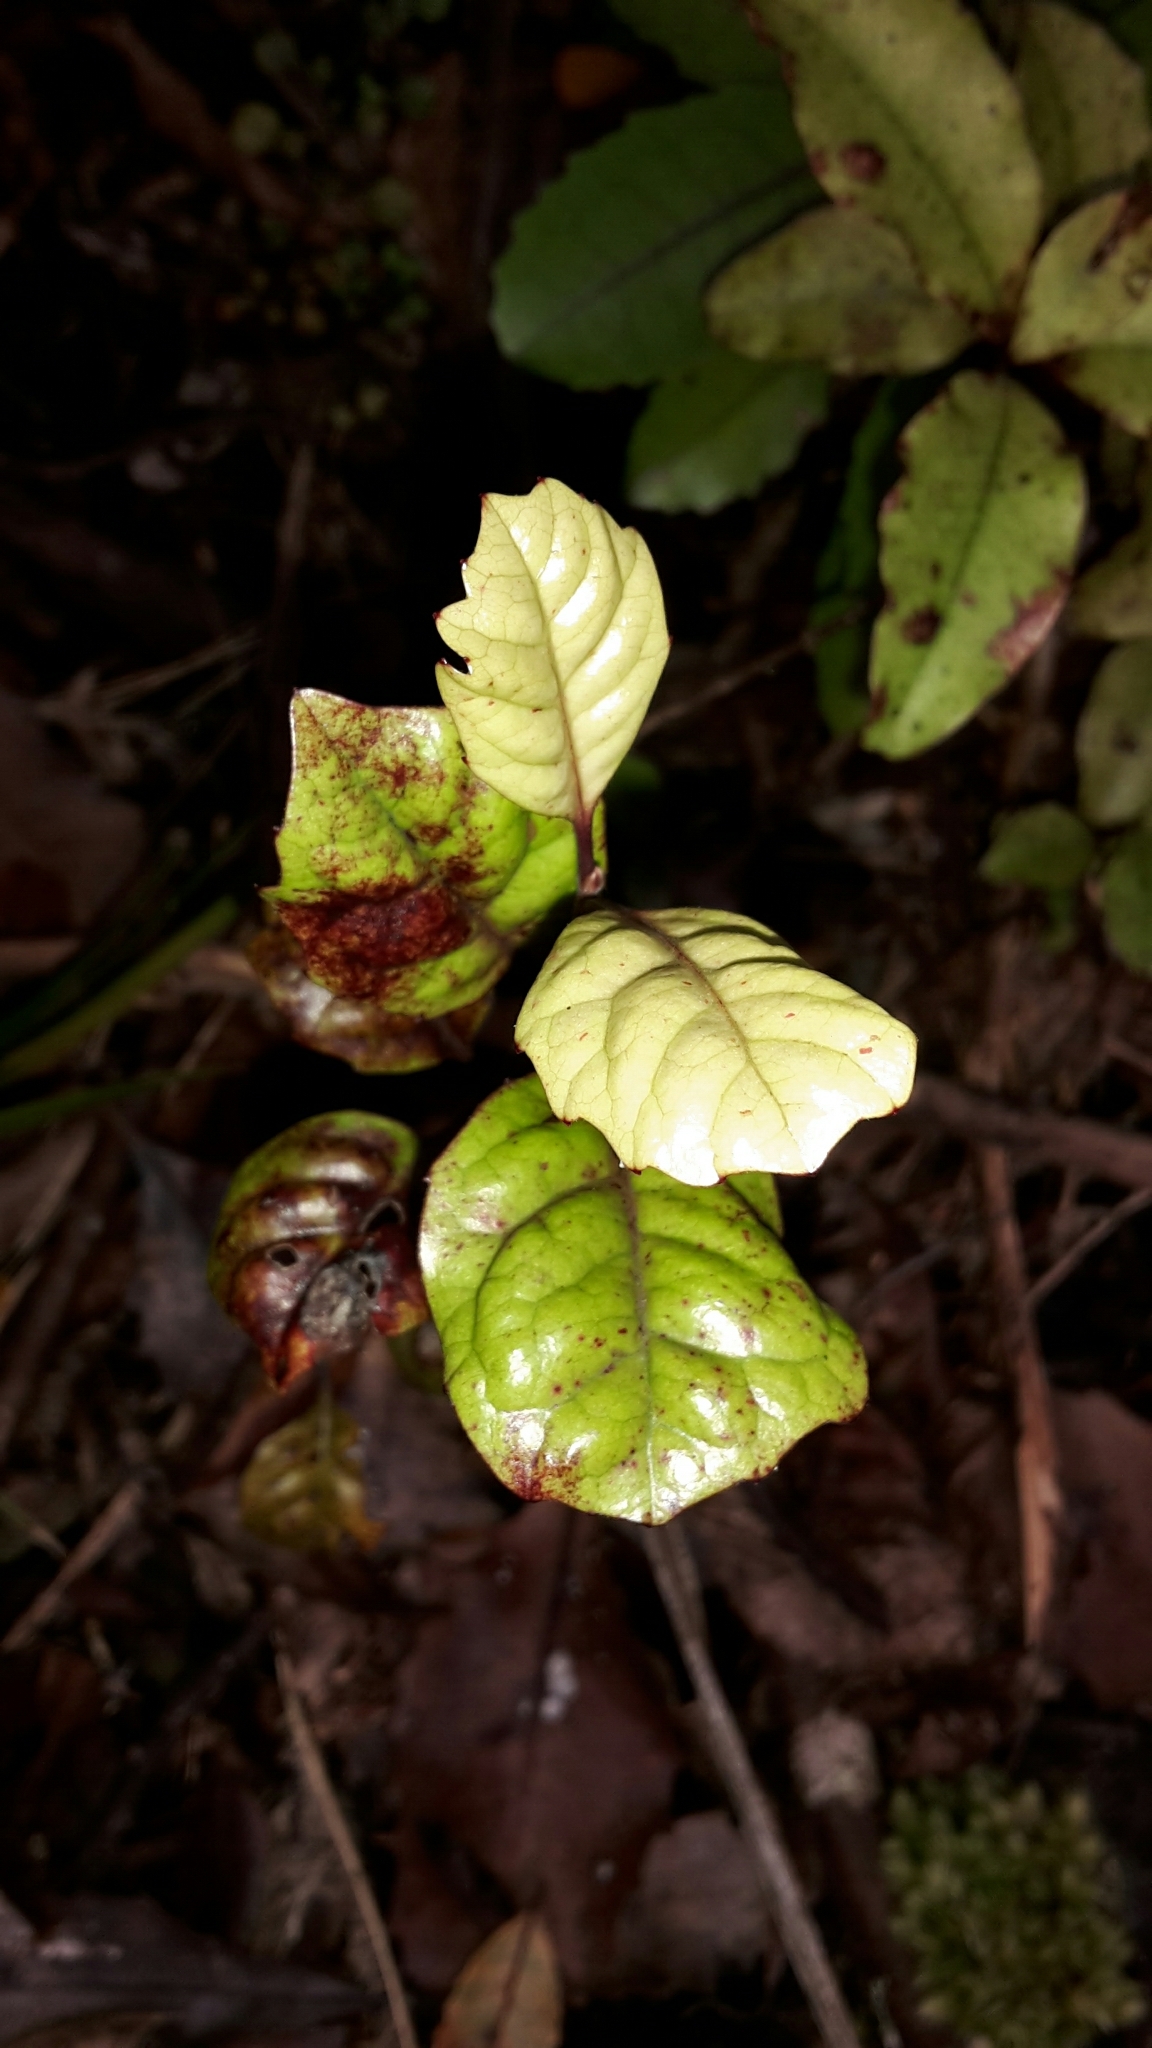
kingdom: Plantae
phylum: Tracheophyta
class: Magnoliopsida
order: Asterales
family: Alseuosmiaceae
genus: Alseuosmia
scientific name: Alseuosmia banksii
